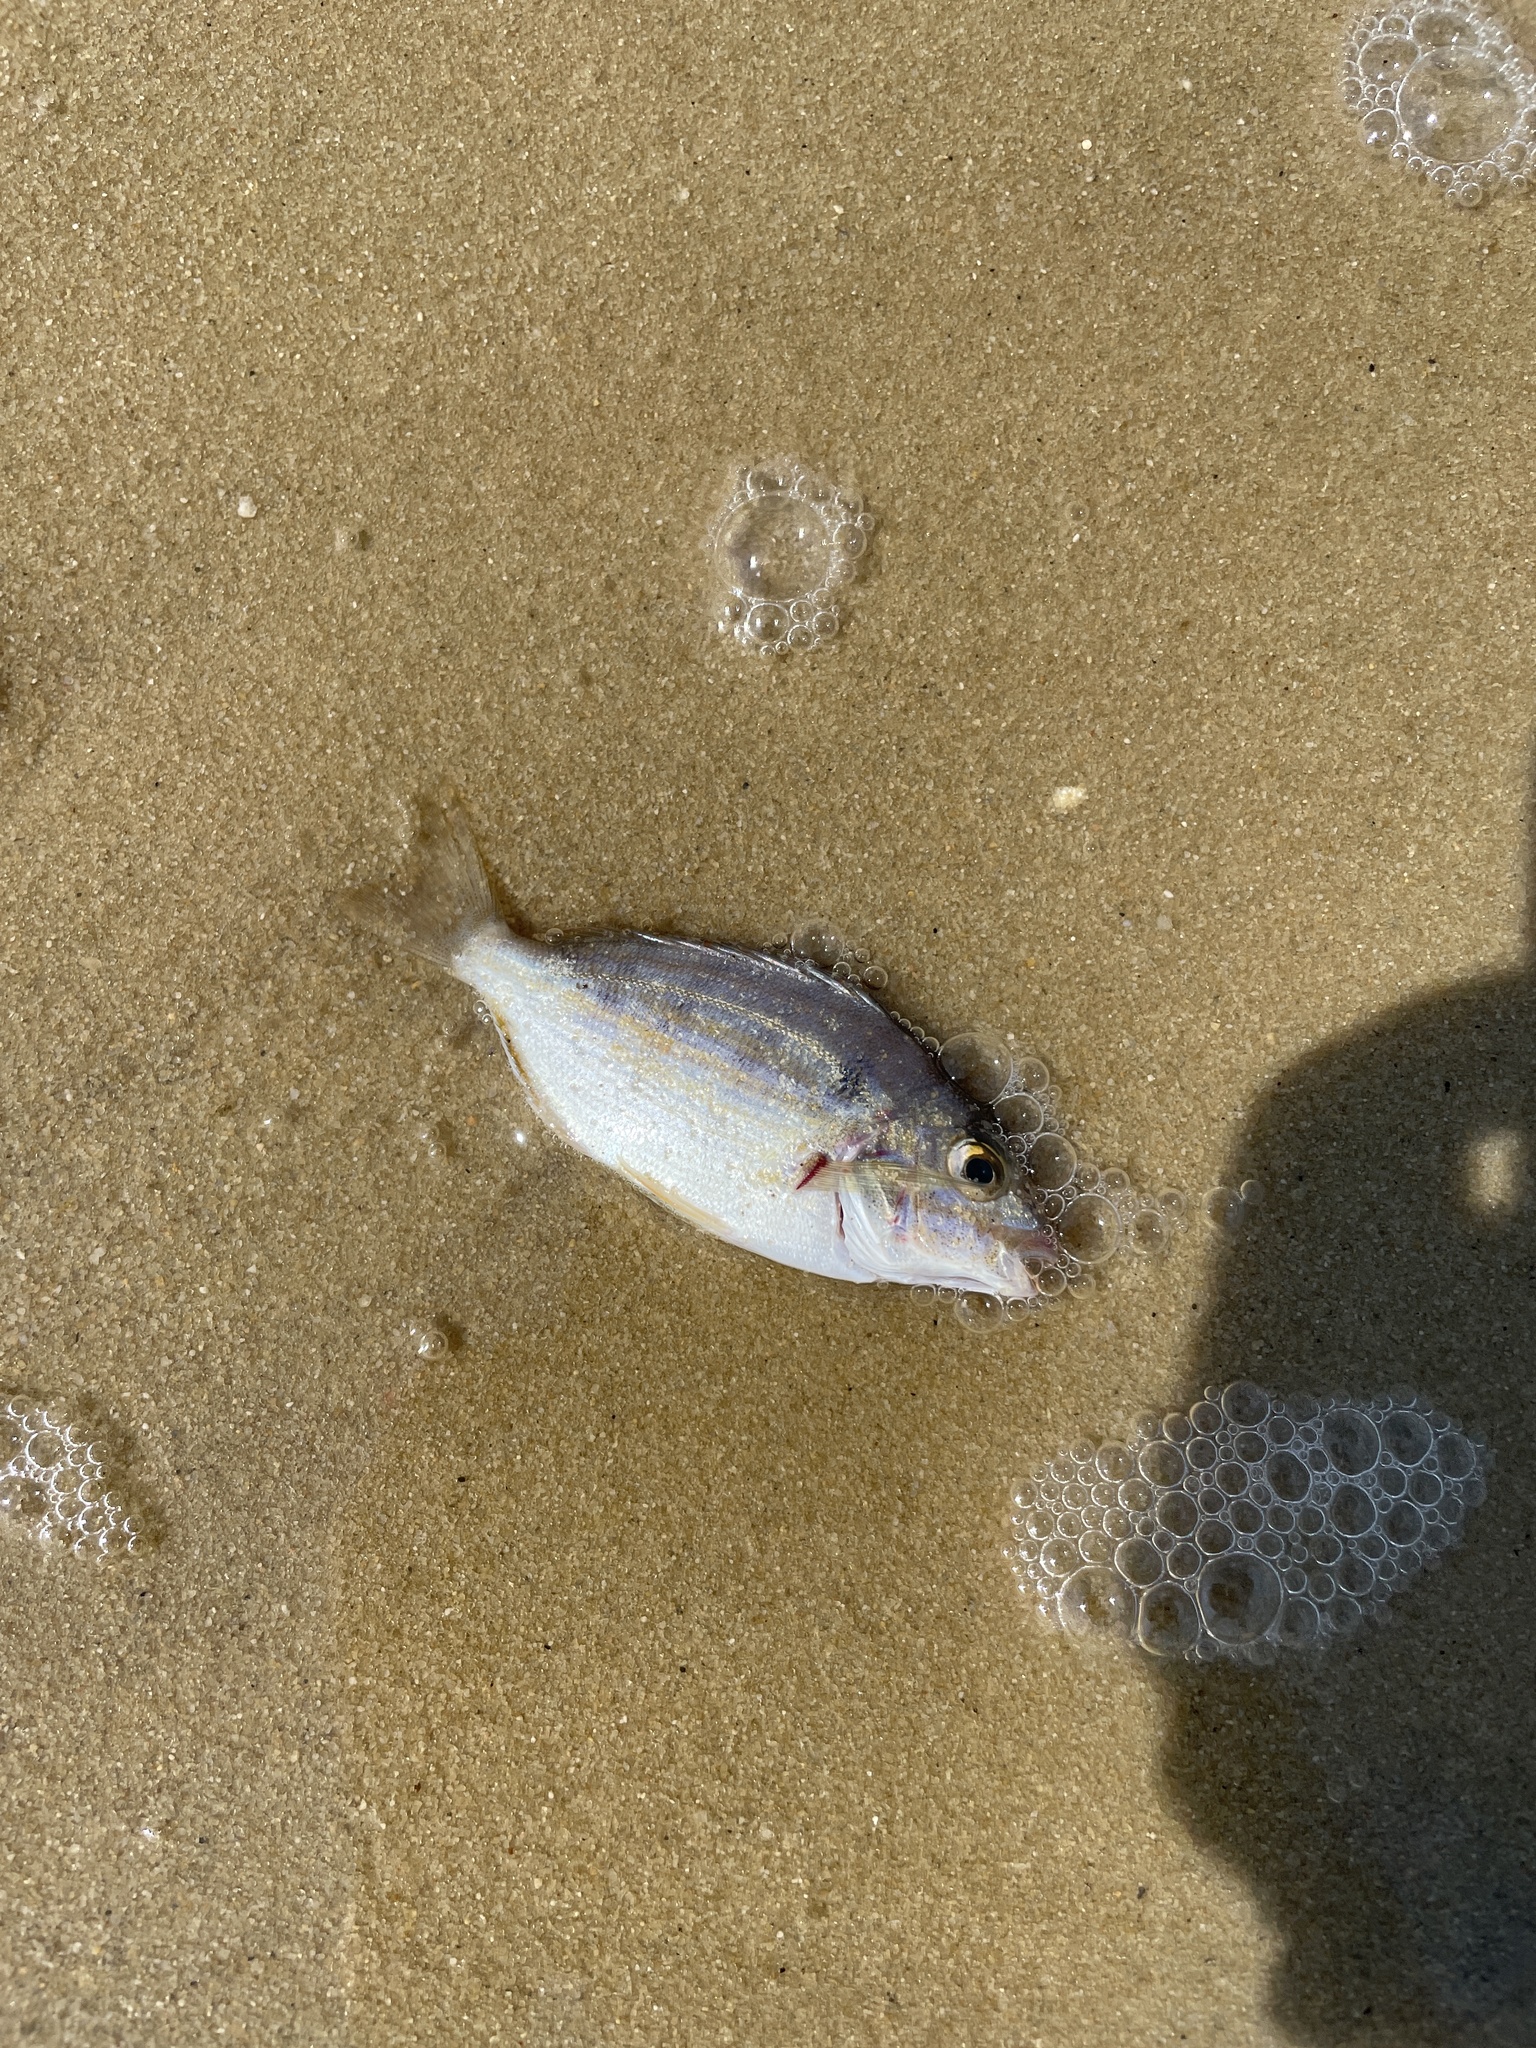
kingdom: Animalia
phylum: Chordata
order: Perciformes
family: Sparidae
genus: Lagodon
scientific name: Lagodon rhomboides
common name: Pinfish
